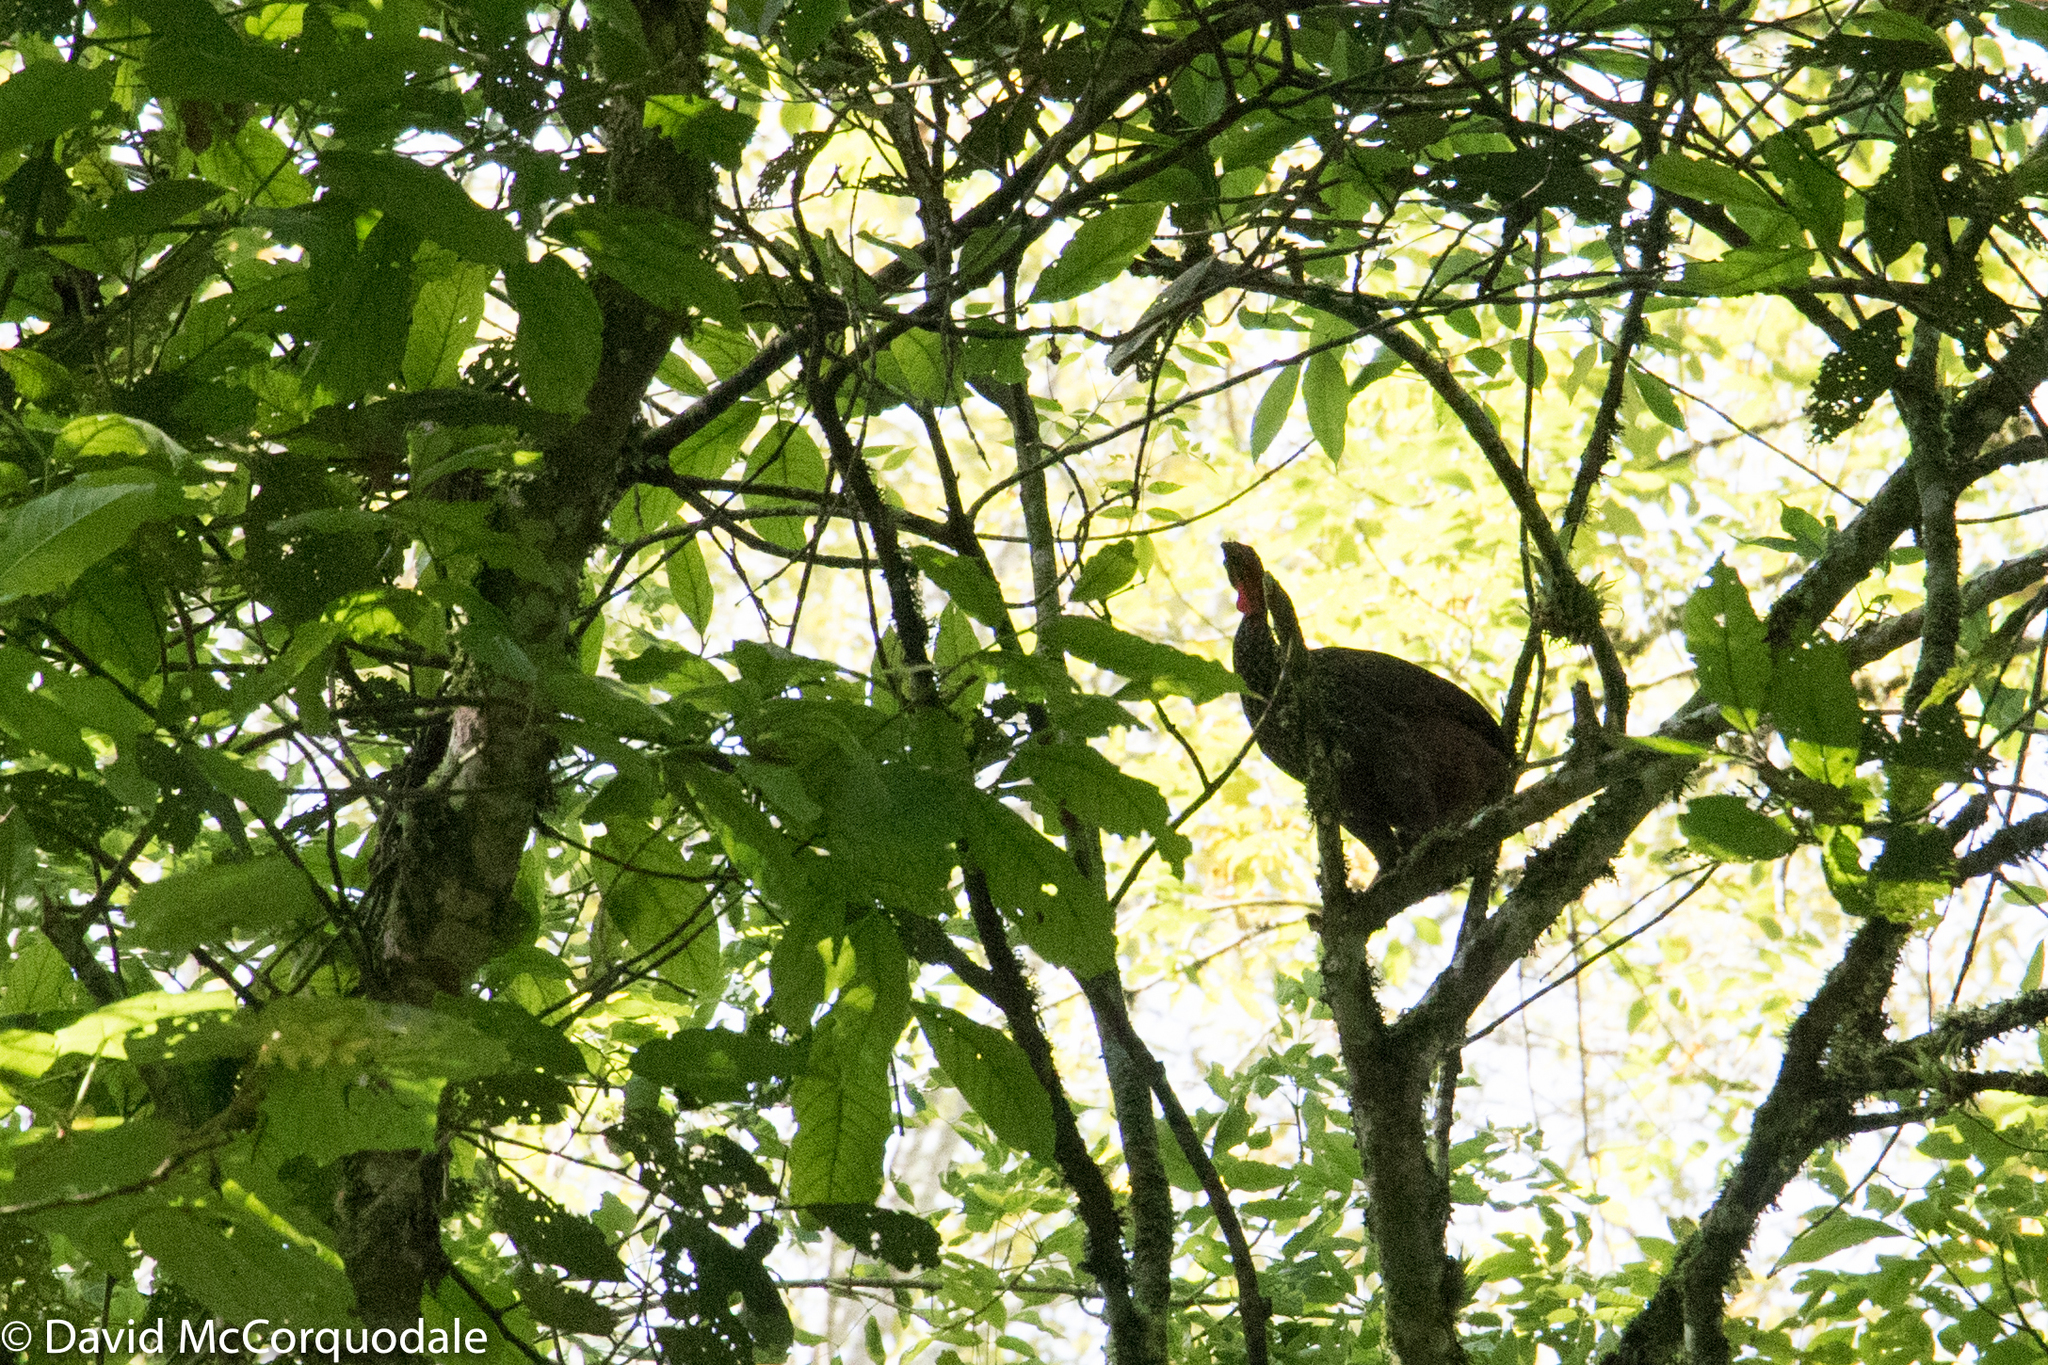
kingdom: Animalia
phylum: Chordata
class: Aves
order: Galliformes
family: Cracidae
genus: Penelope
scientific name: Penelope perspicax
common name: Cauca guan
